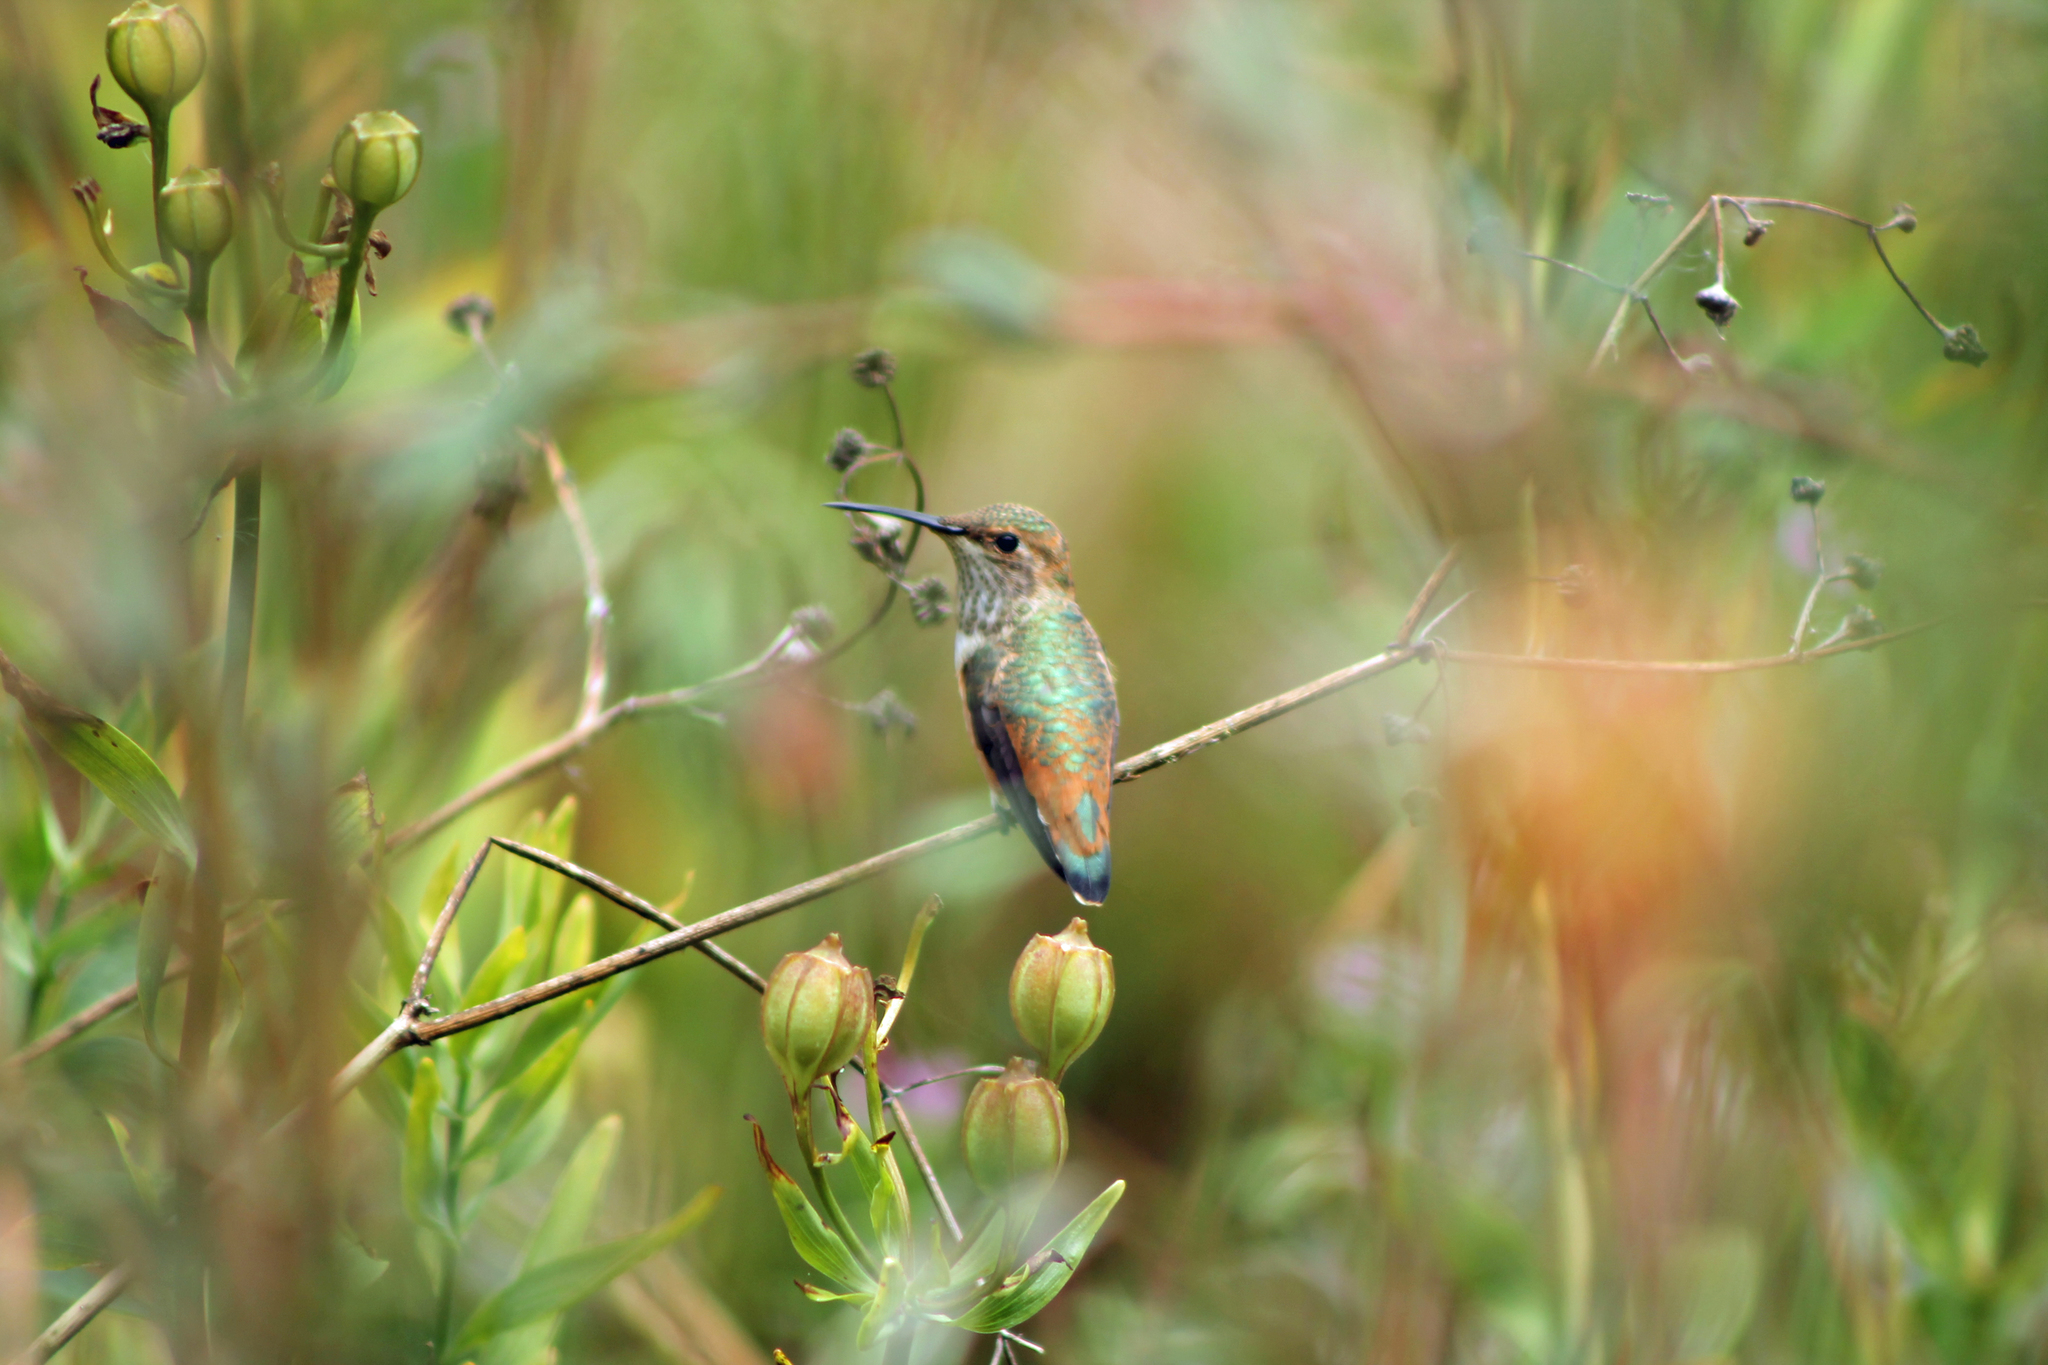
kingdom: Animalia
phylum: Chordata
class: Aves
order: Apodiformes
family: Trochilidae
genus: Selasphorus
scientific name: Selasphorus
